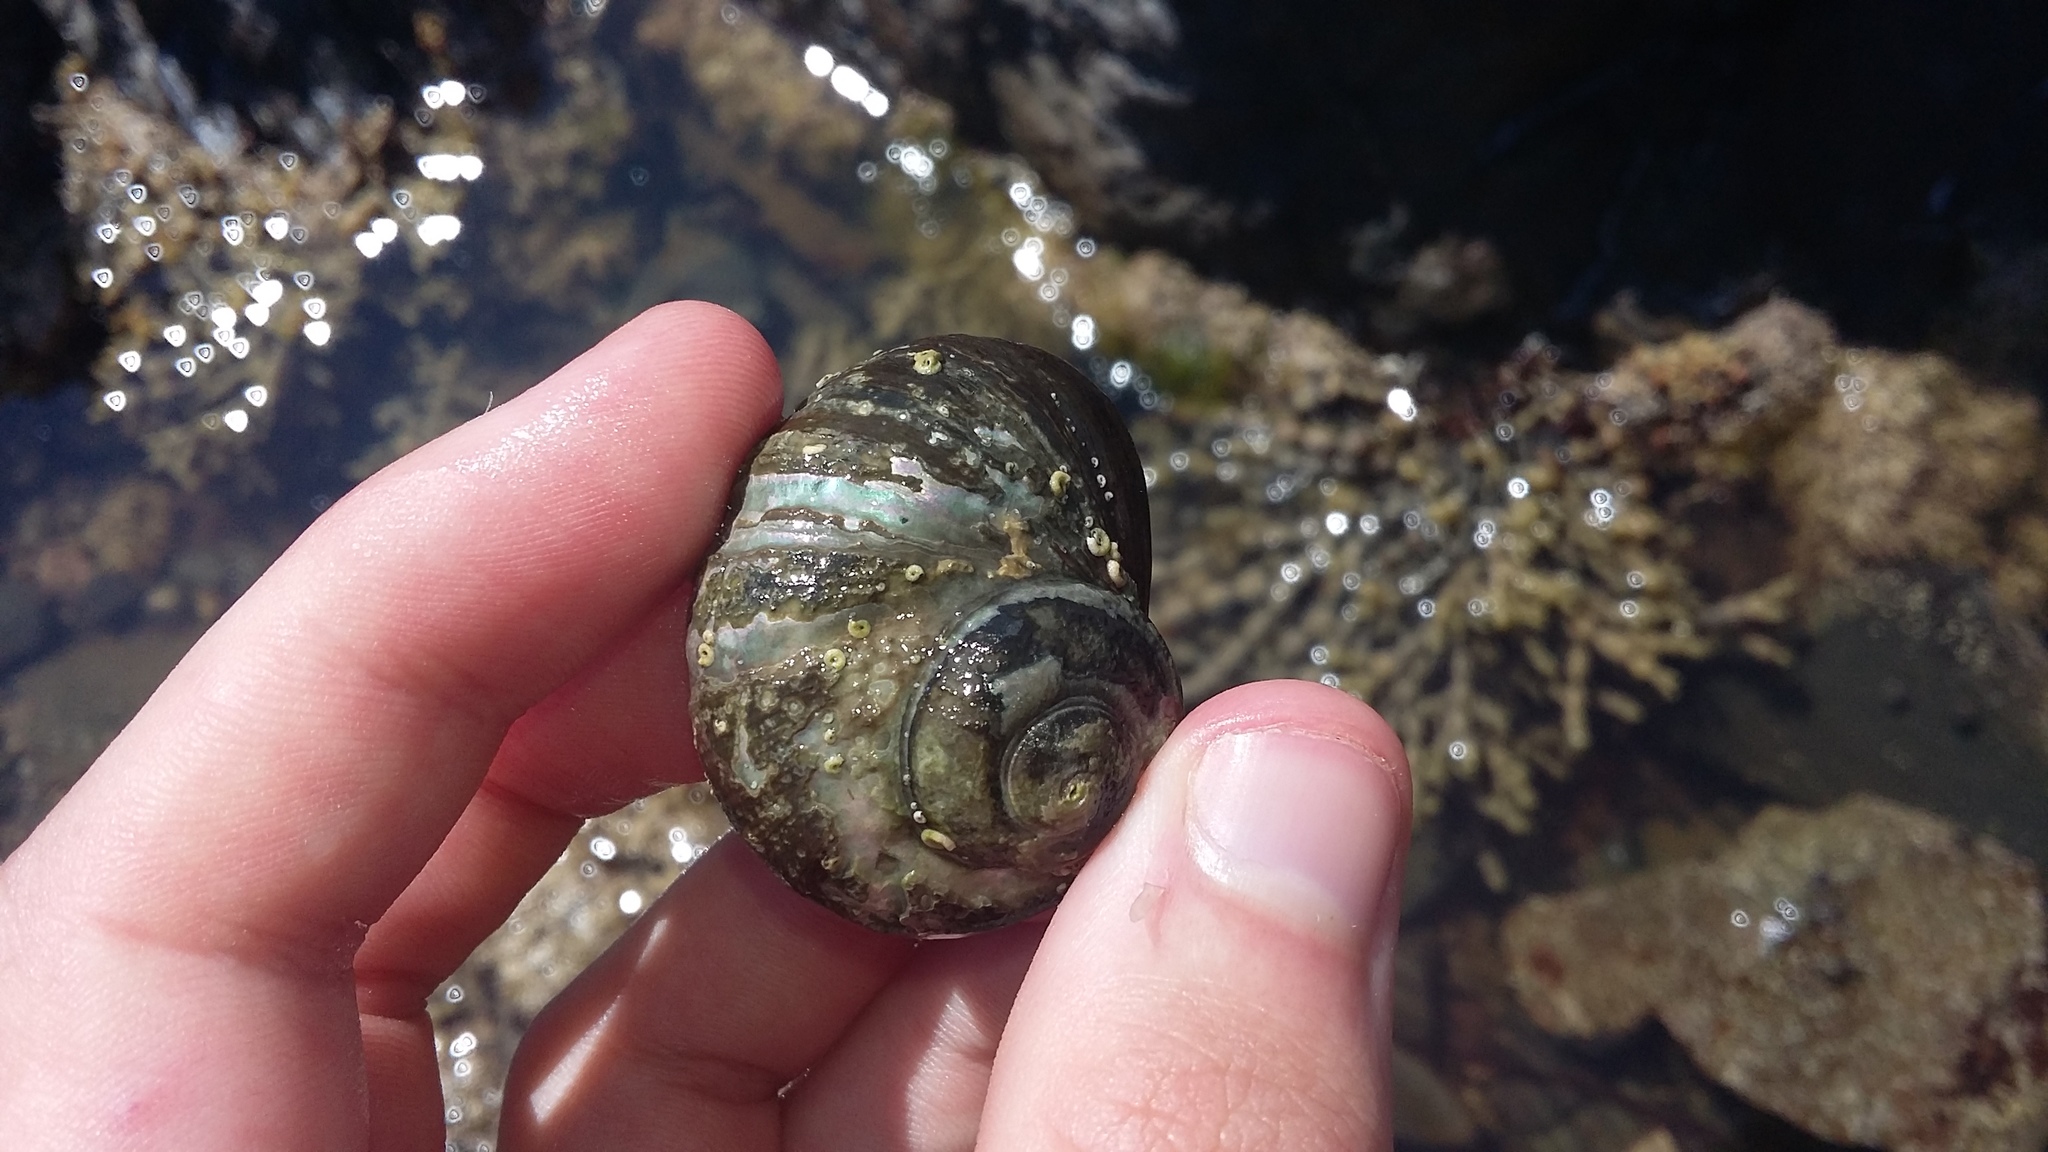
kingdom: Animalia
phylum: Mollusca
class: Gastropoda
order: Trochida
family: Turbinidae
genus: Lunella
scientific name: Lunella smaragda
